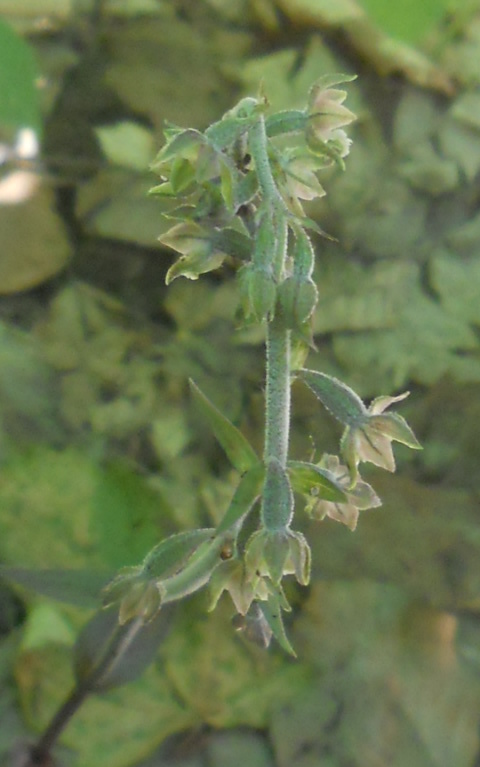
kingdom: Plantae
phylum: Tracheophyta
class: Liliopsida
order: Asparagales
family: Orchidaceae
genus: Epipactis
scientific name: Epipactis microphylla
